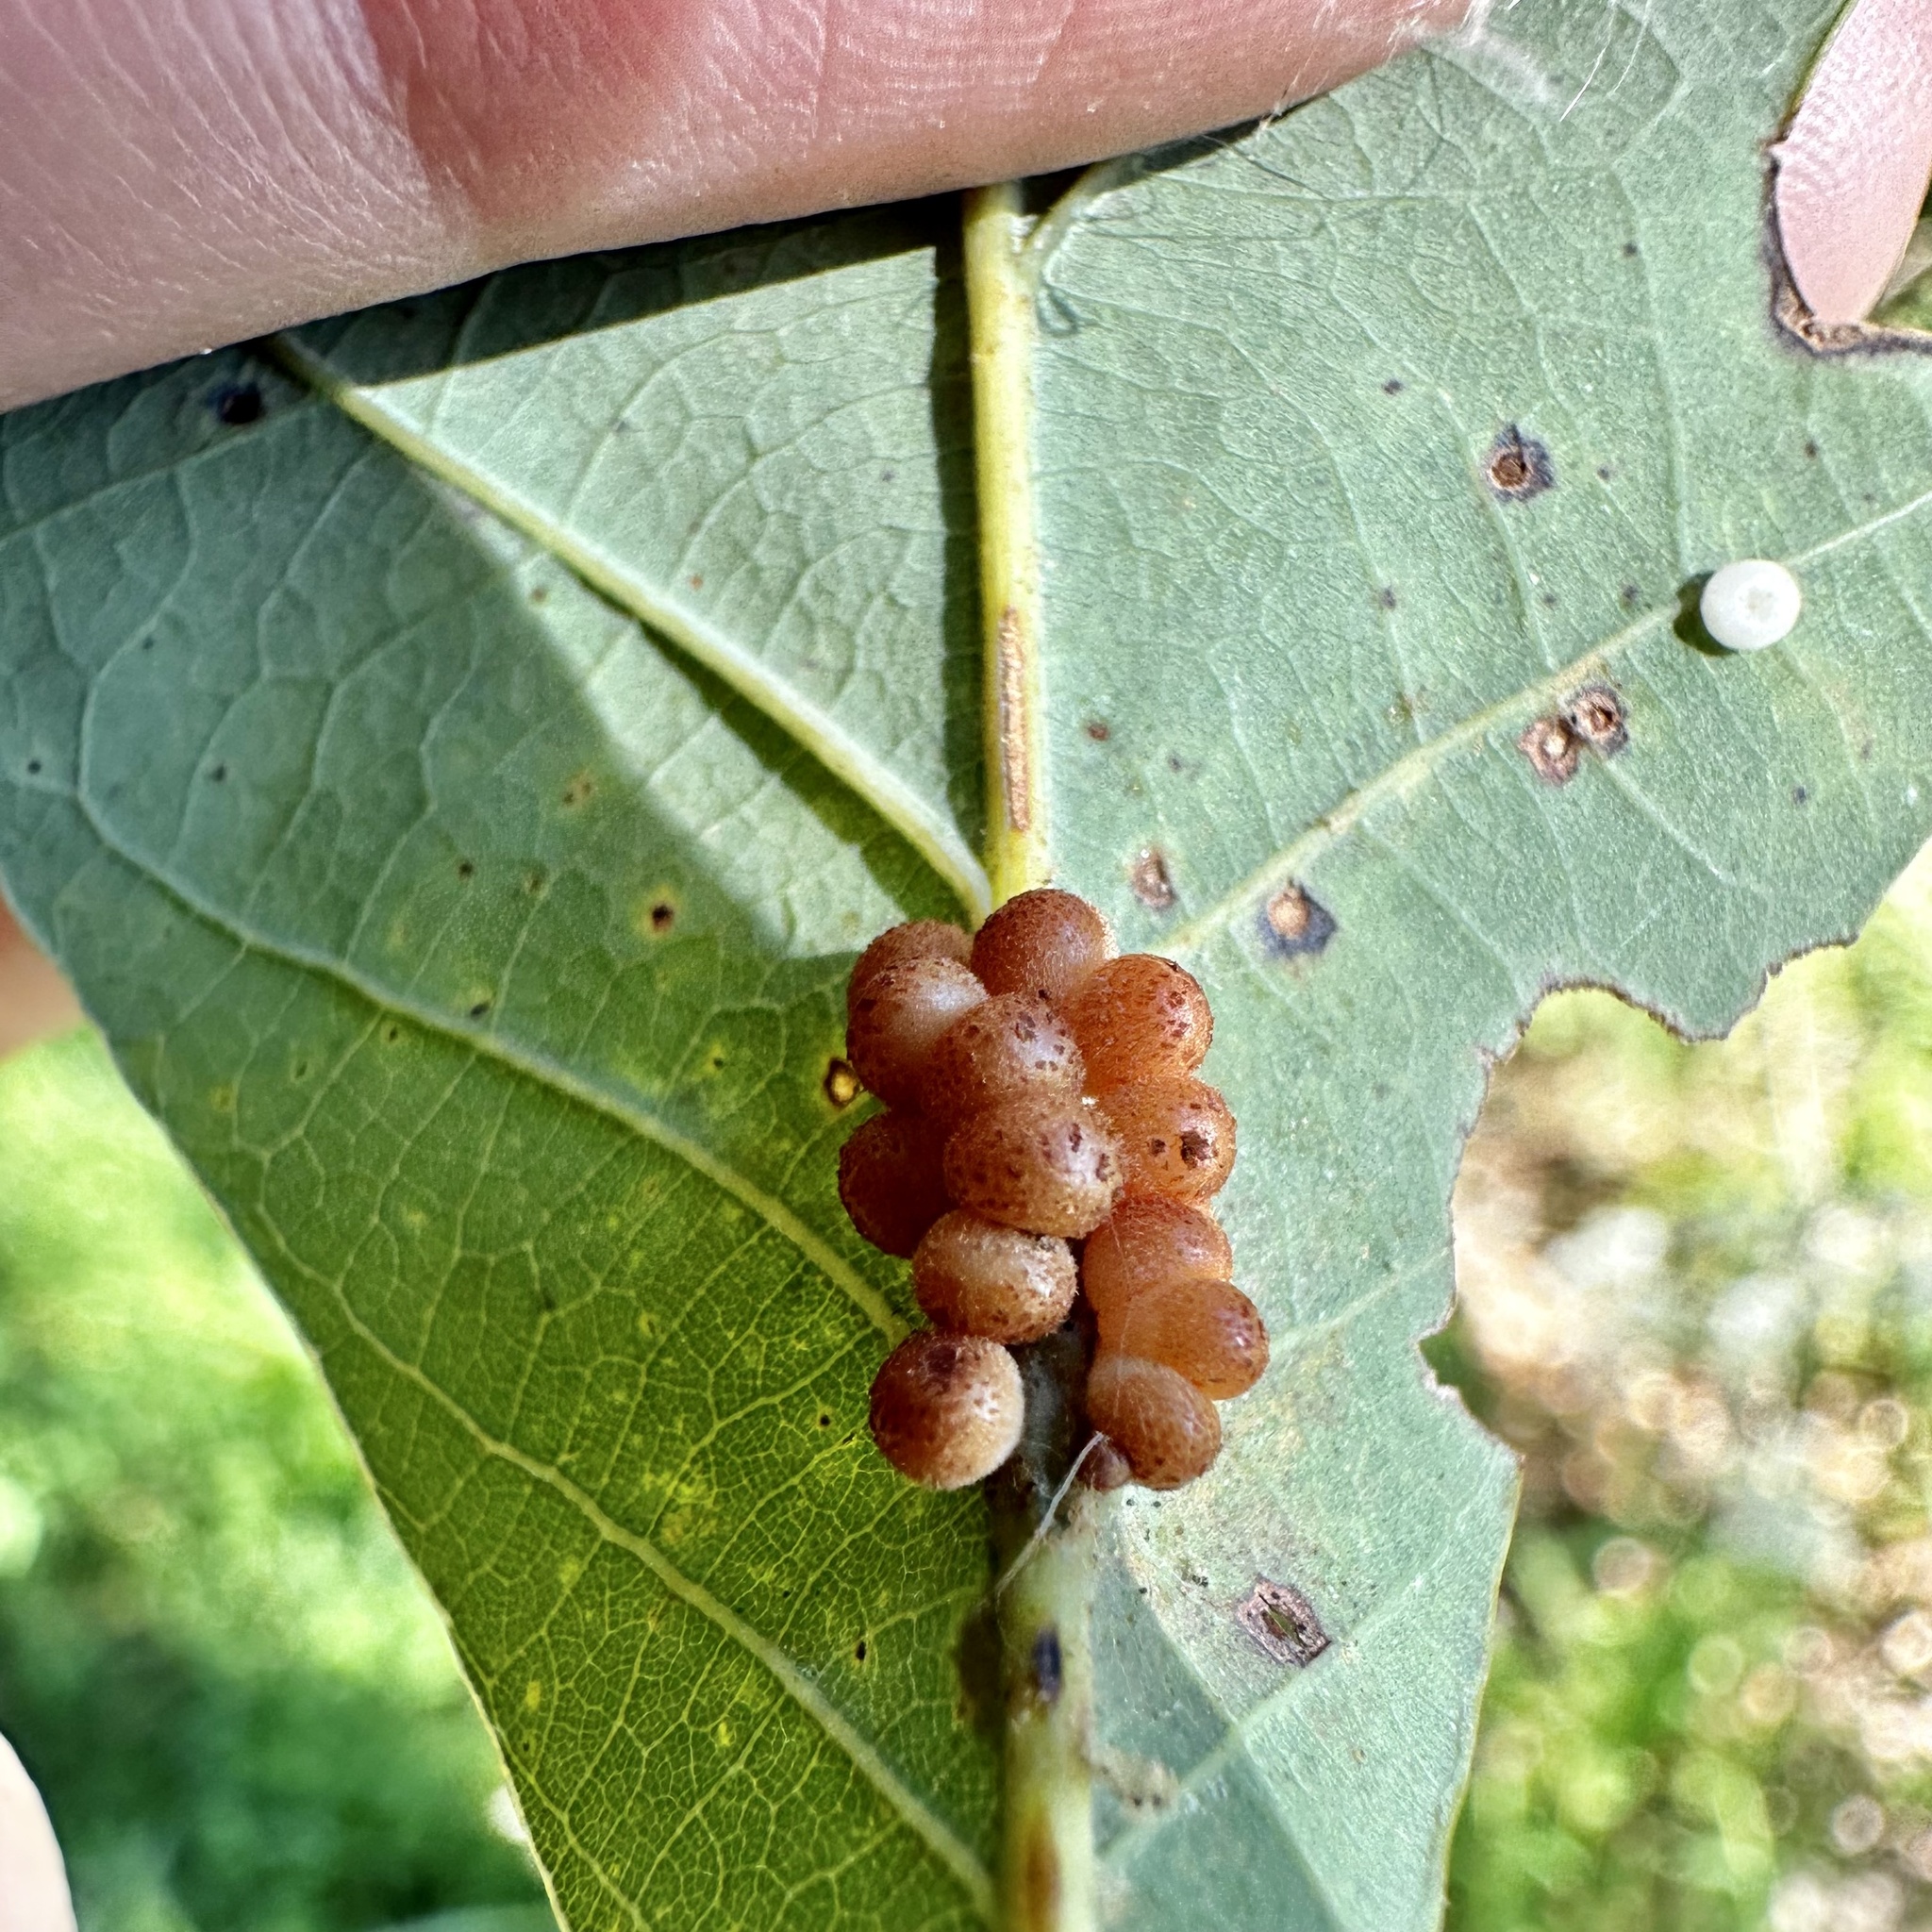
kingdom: Animalia
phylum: Arthropoda
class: Insecta
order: Hymenoptera
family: Cynipidae
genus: Andricus
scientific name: Andricus
